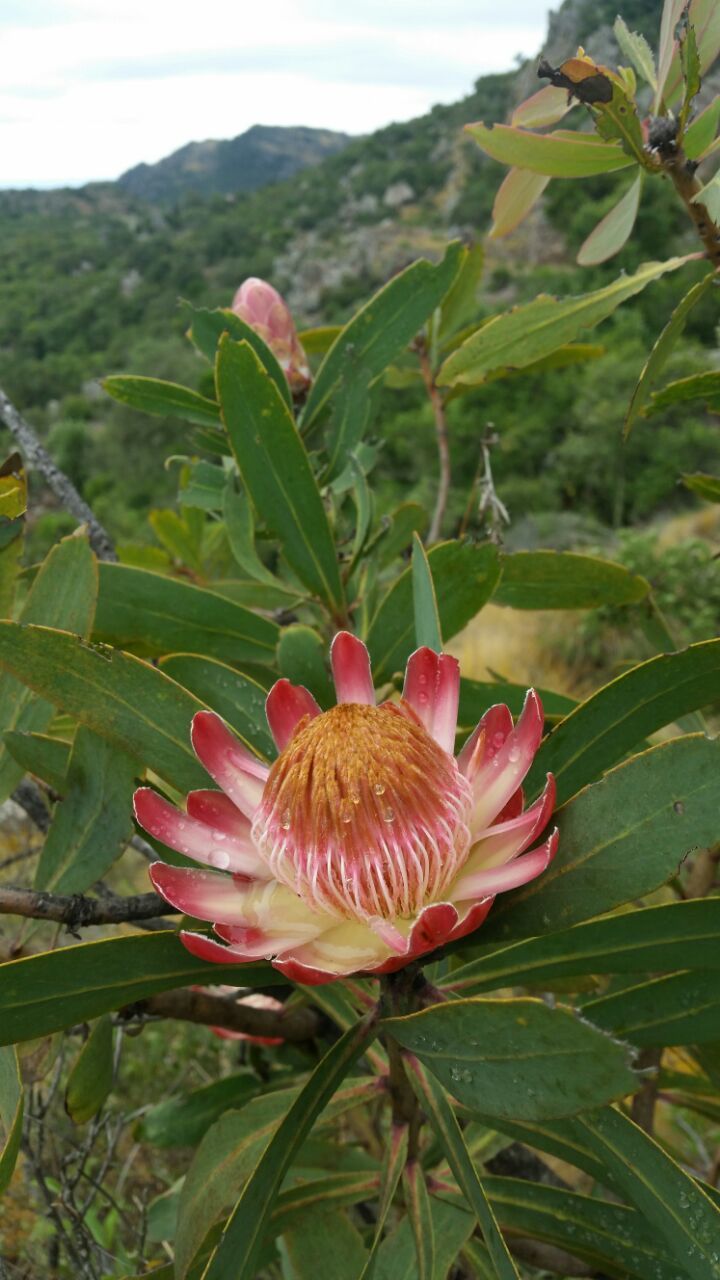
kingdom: Plantae
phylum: Tracheophyta
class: Magnoliopsida
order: Proteales
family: Proteaceae
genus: Protea
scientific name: Protea caffra
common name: Common sugarbush
